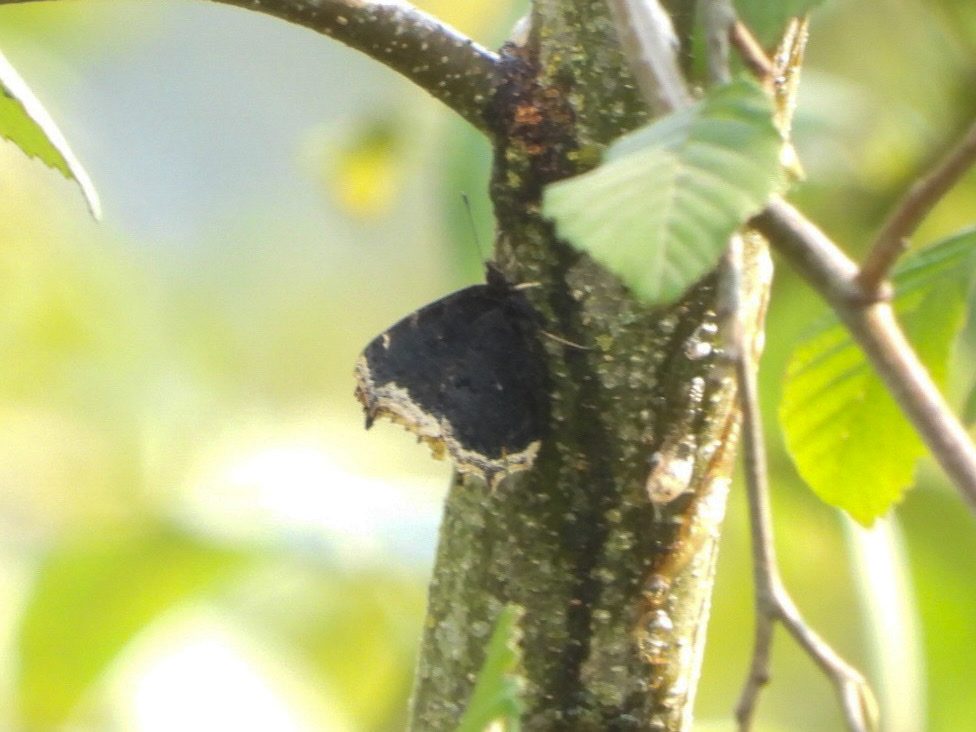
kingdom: Animalia
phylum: Arthropoda
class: Insecta
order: Lepidoptera
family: Nymphalidae
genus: Nymphalis
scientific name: Nymphalis antiopa
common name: Camberwell beauty
